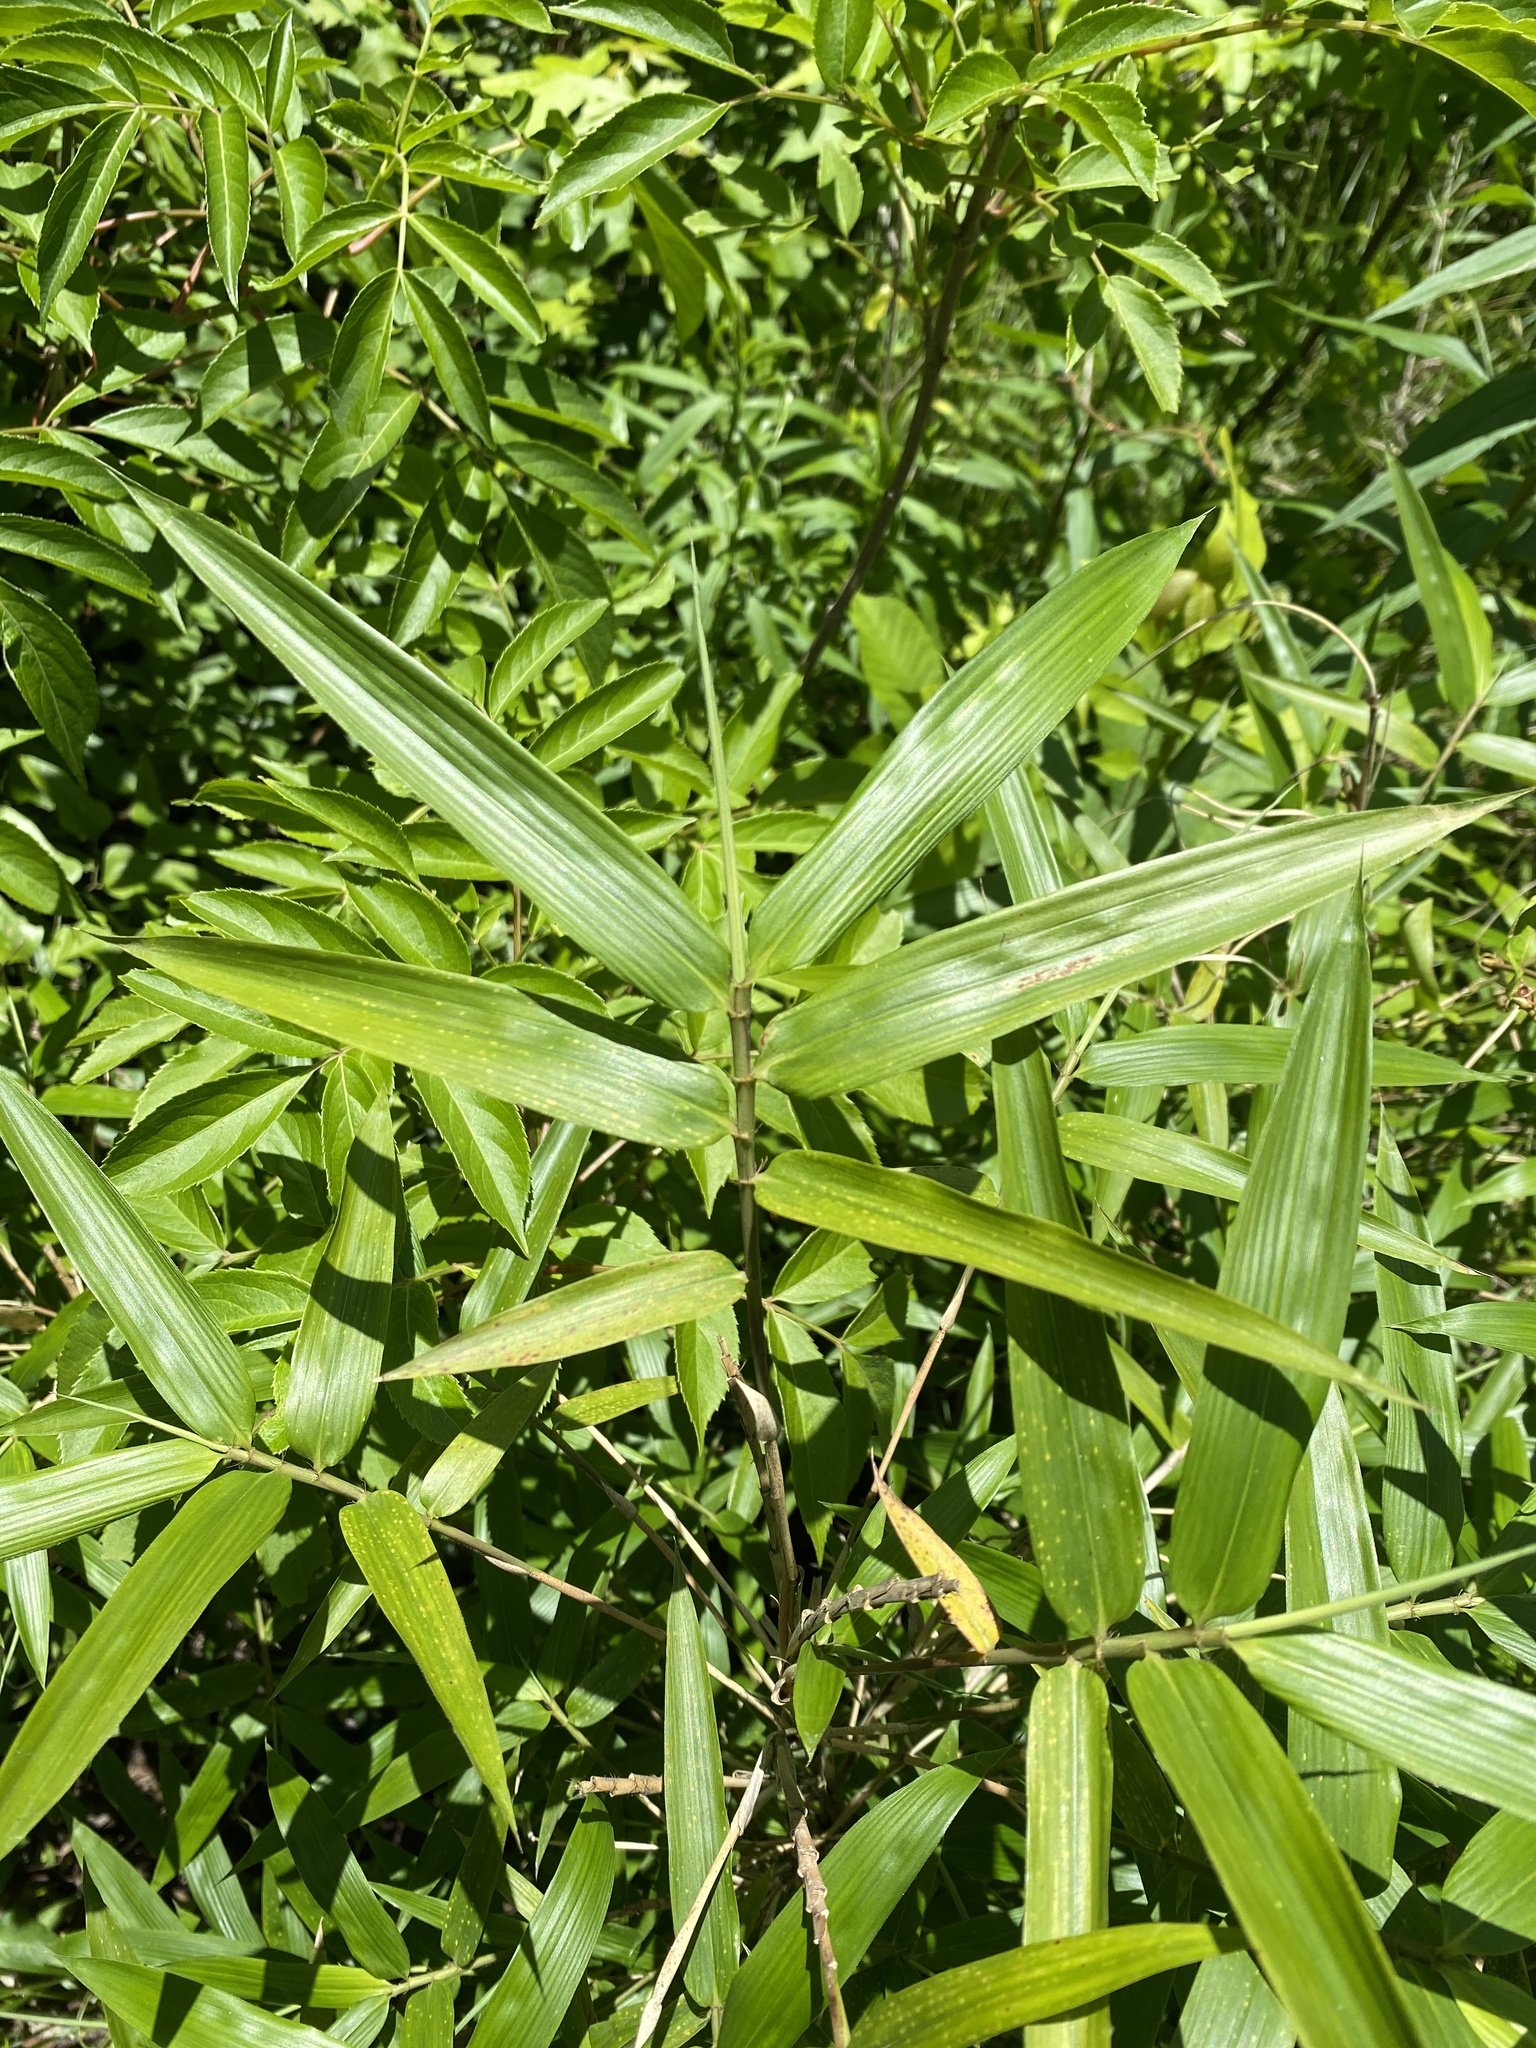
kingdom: Plantae
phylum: Tracheophyta
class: Liliopsida
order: Poales
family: Poaceae
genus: Arundinaria
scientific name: Arundinaria tecta
